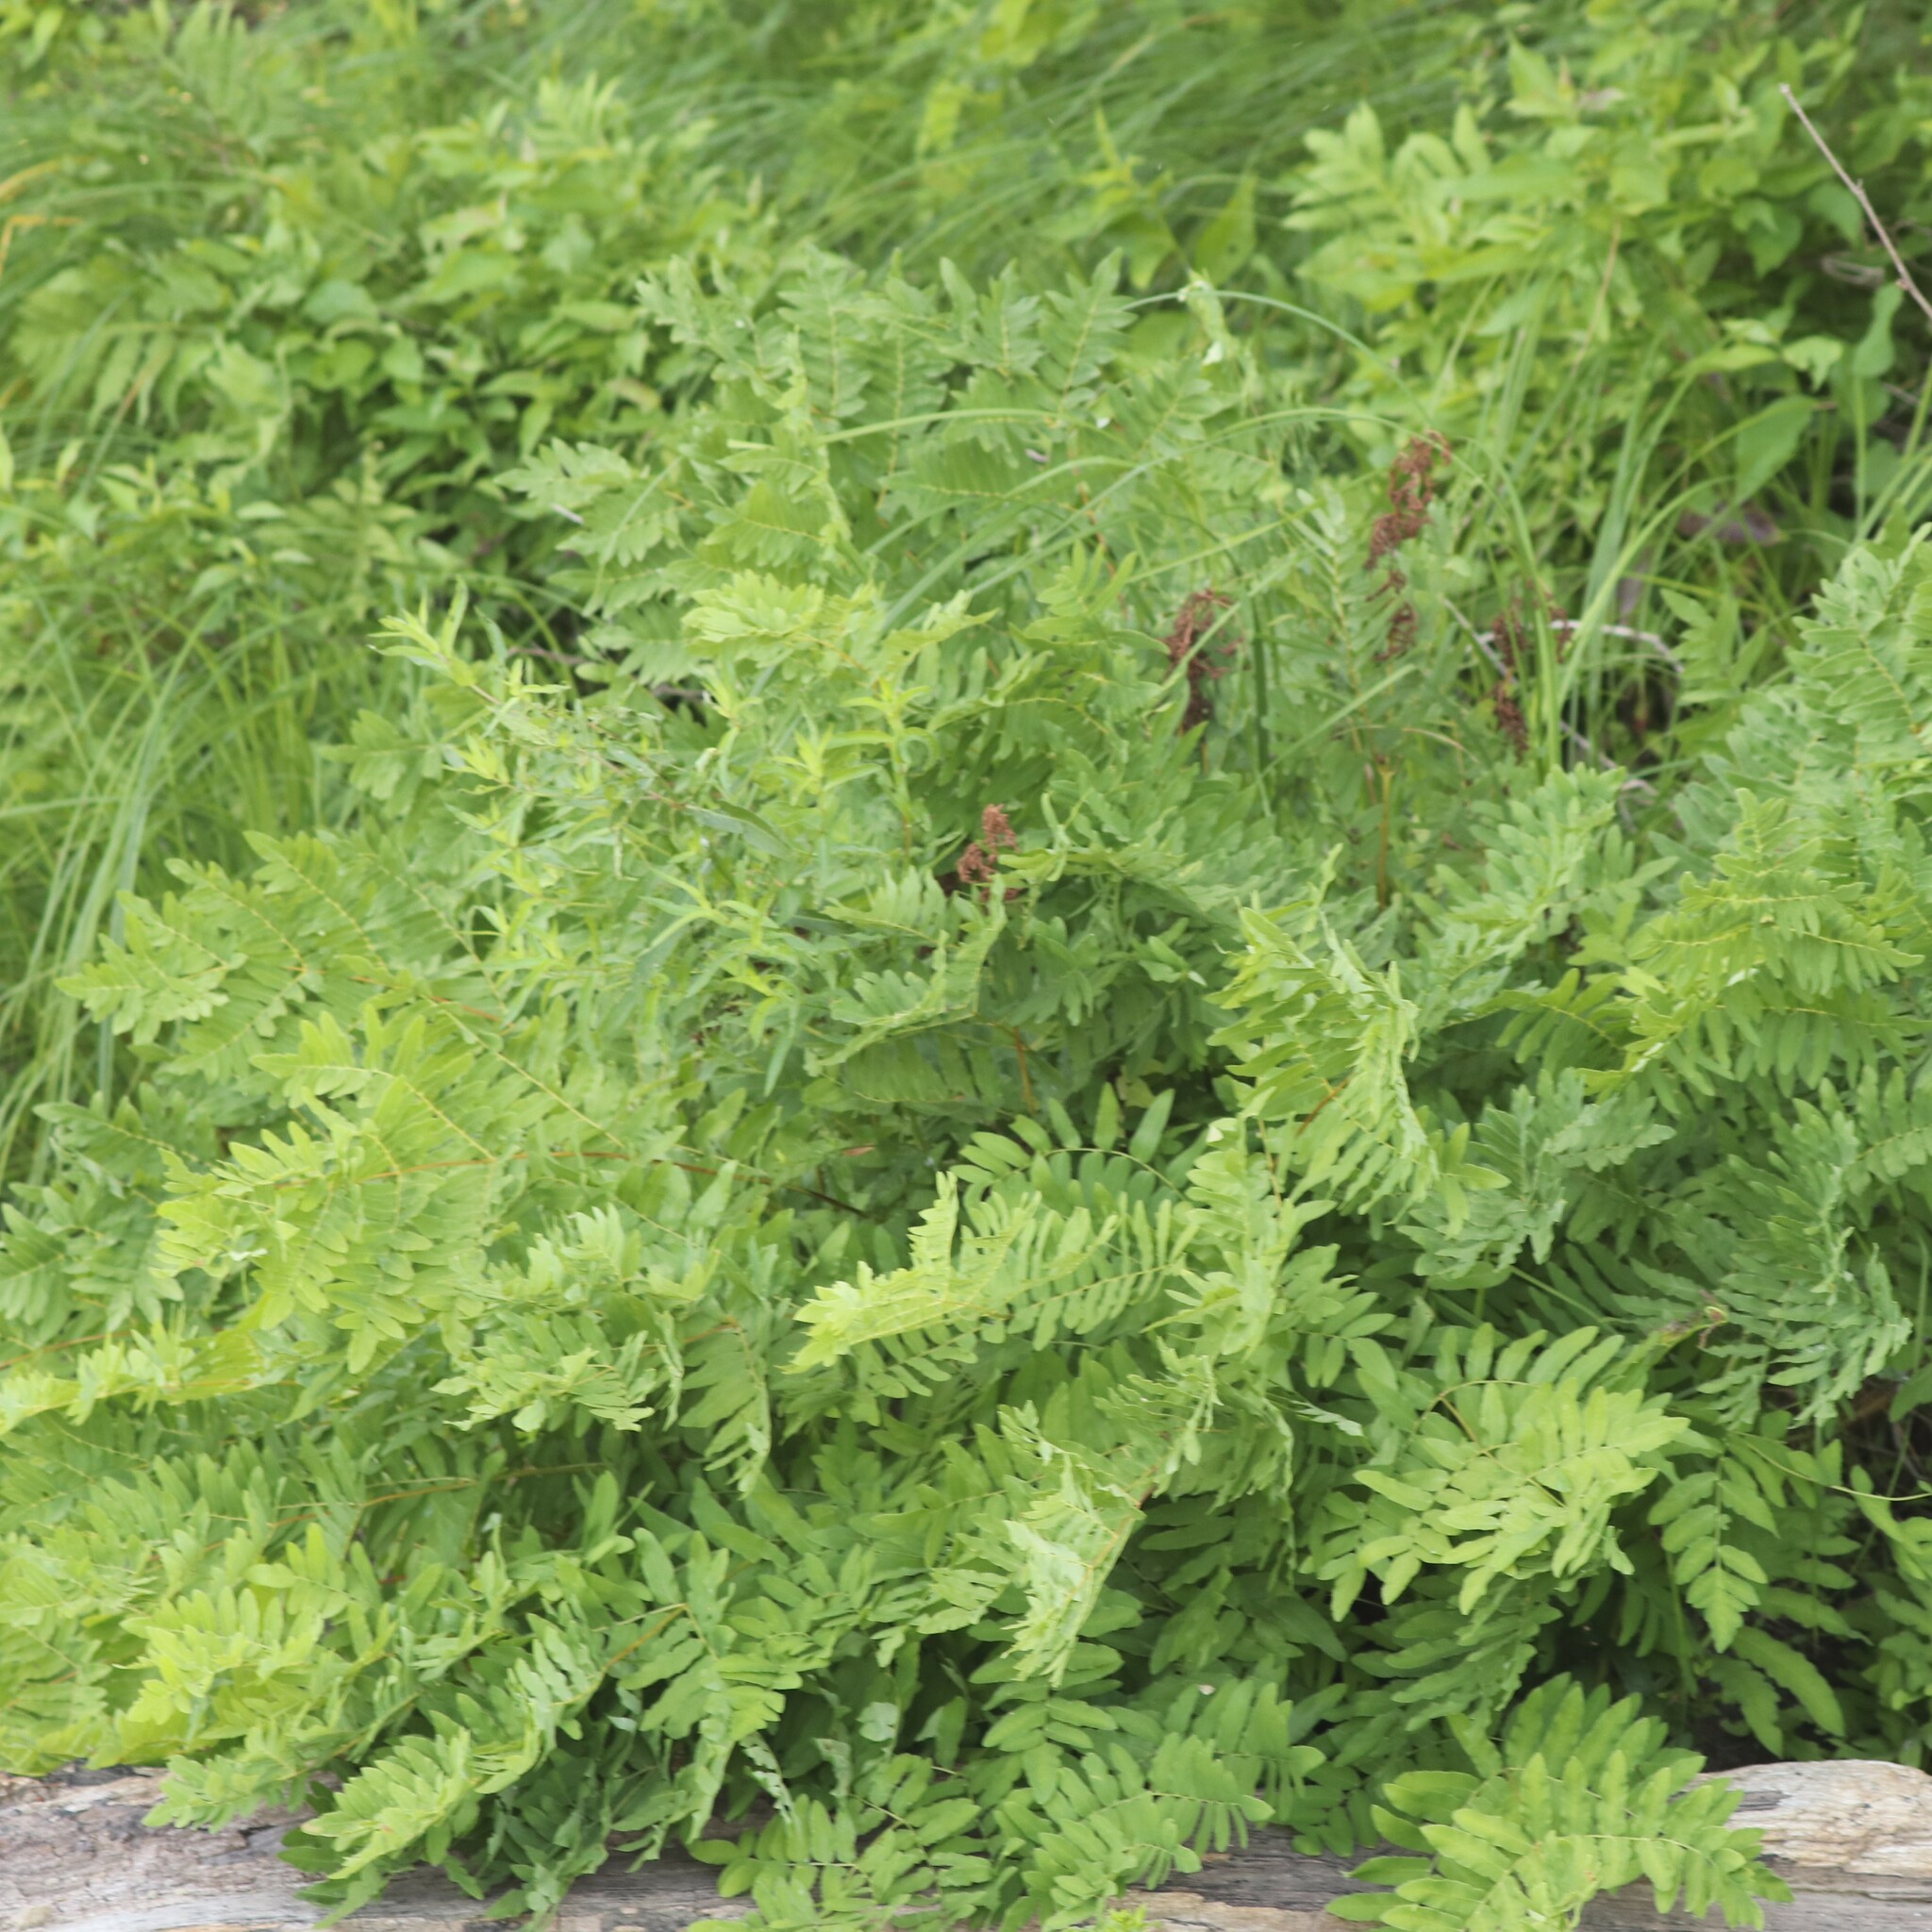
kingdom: Plantae
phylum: Tracheophyta
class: Polypodiopsida
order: Osmundales
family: Osmundaceae
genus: Osmunda
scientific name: Osmunda spectabilis
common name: American royal fern
